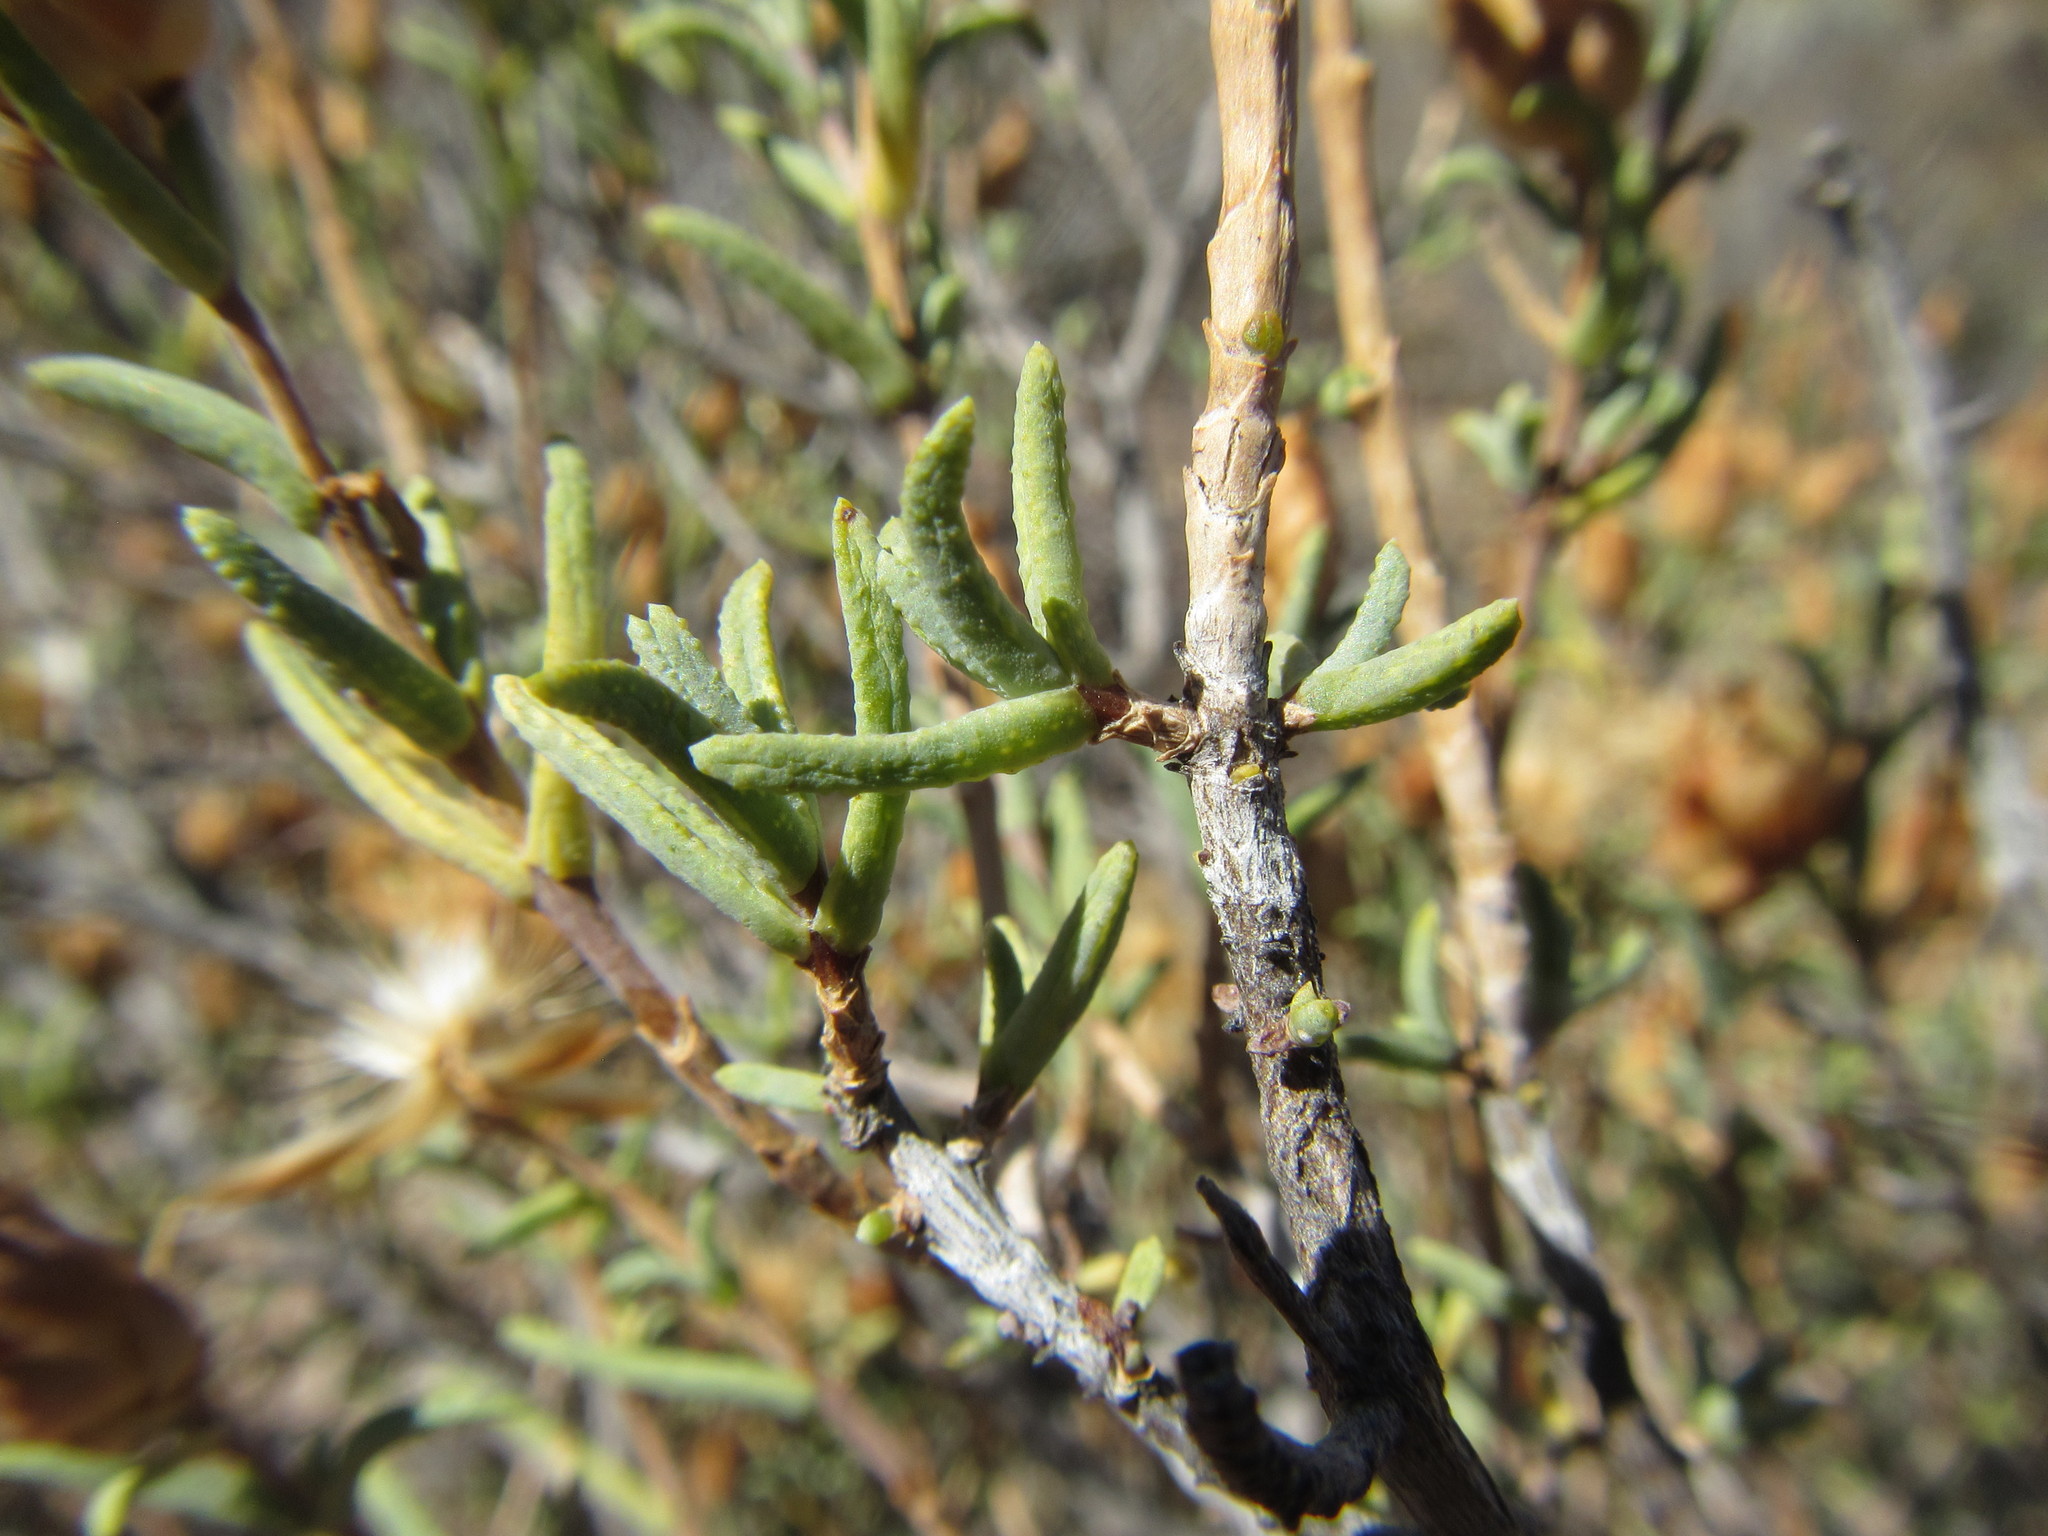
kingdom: Plantae
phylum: Tracheophyta
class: Magnoliopsida
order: Asterales
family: Asteraceae
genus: Pteronia
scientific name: Pteronia succulenta
